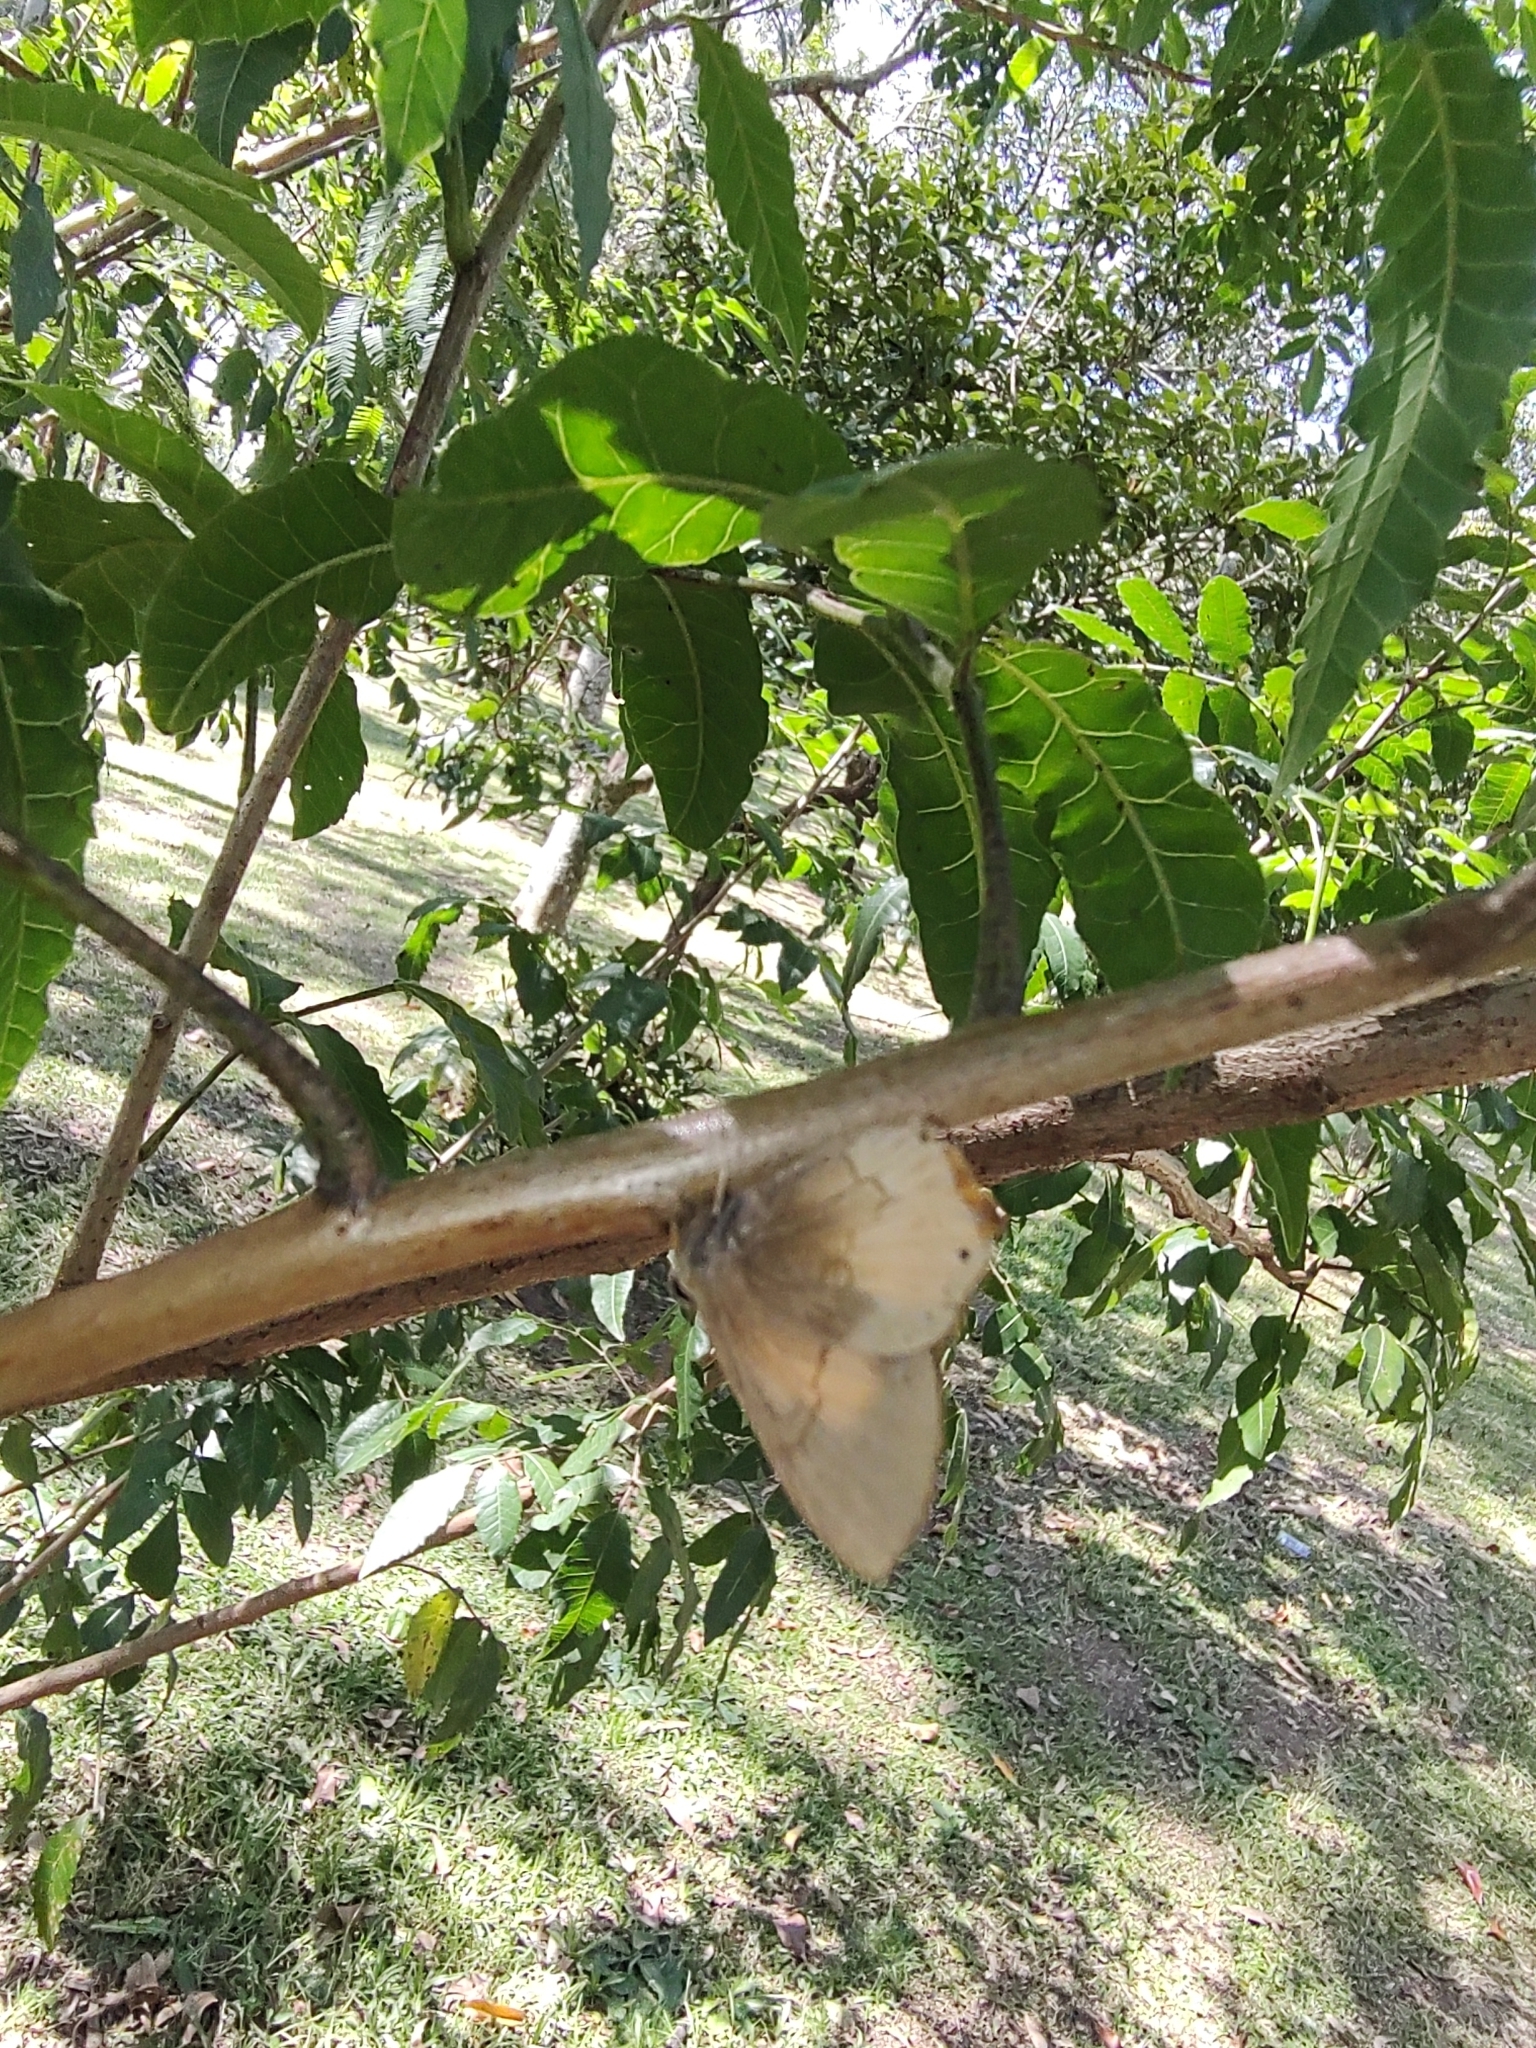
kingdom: Animalia
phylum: Arthropoda
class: Insecta
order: Lepidoptera
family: Lycaenidae
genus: Euselasia
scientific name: Euselasia euploea
